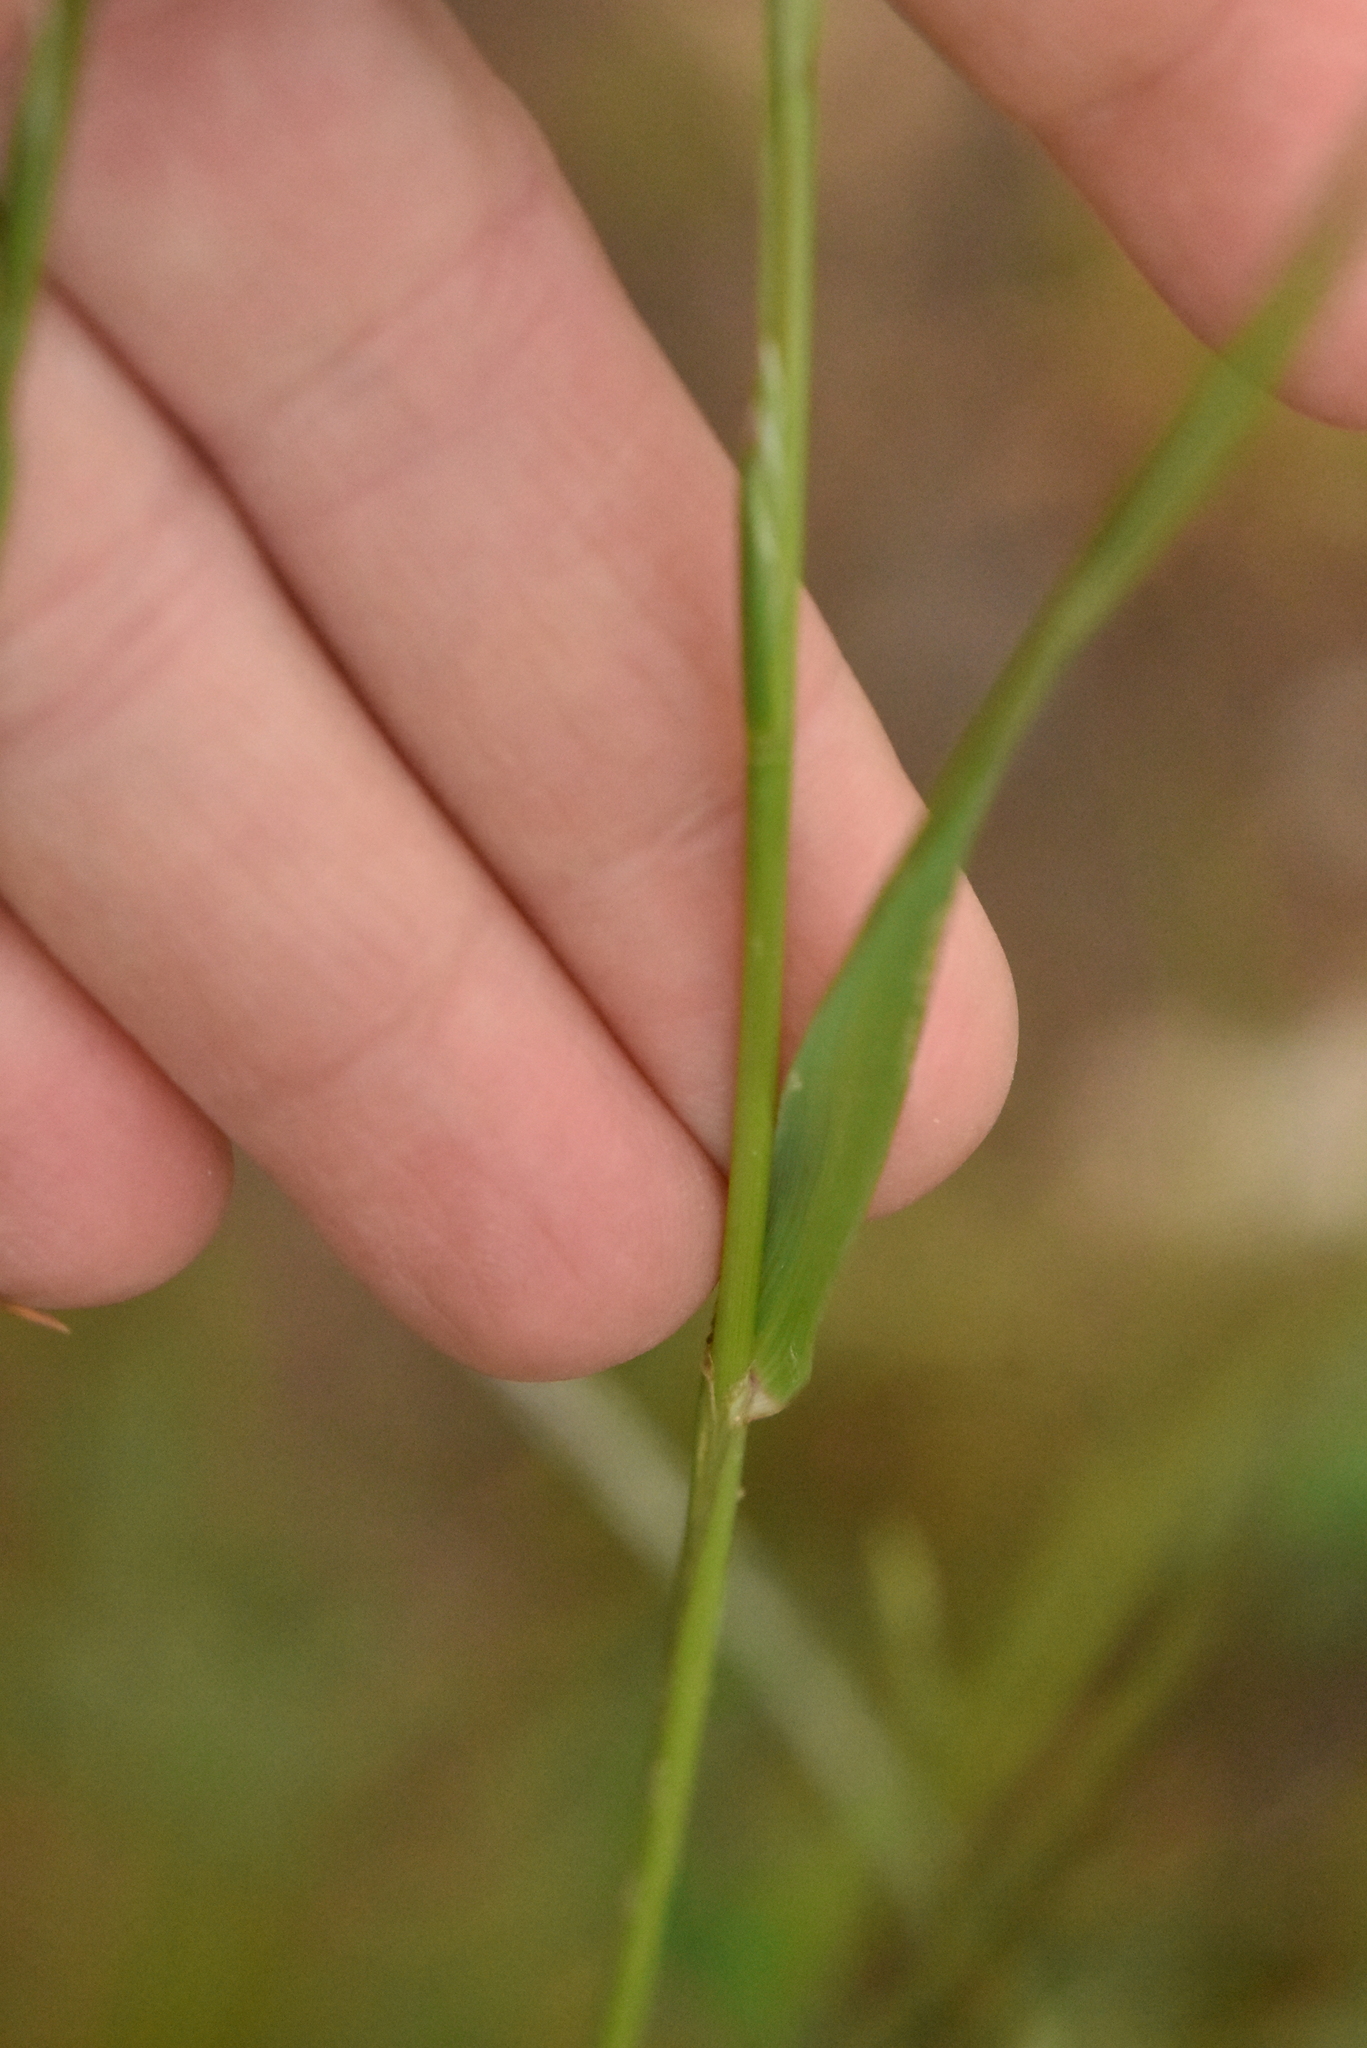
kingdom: Plantae
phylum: Tracheophyta
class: Liliopsida
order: Poales
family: Poaceae
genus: Lolium
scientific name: Lolium perenne
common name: Perennial ryegrass
